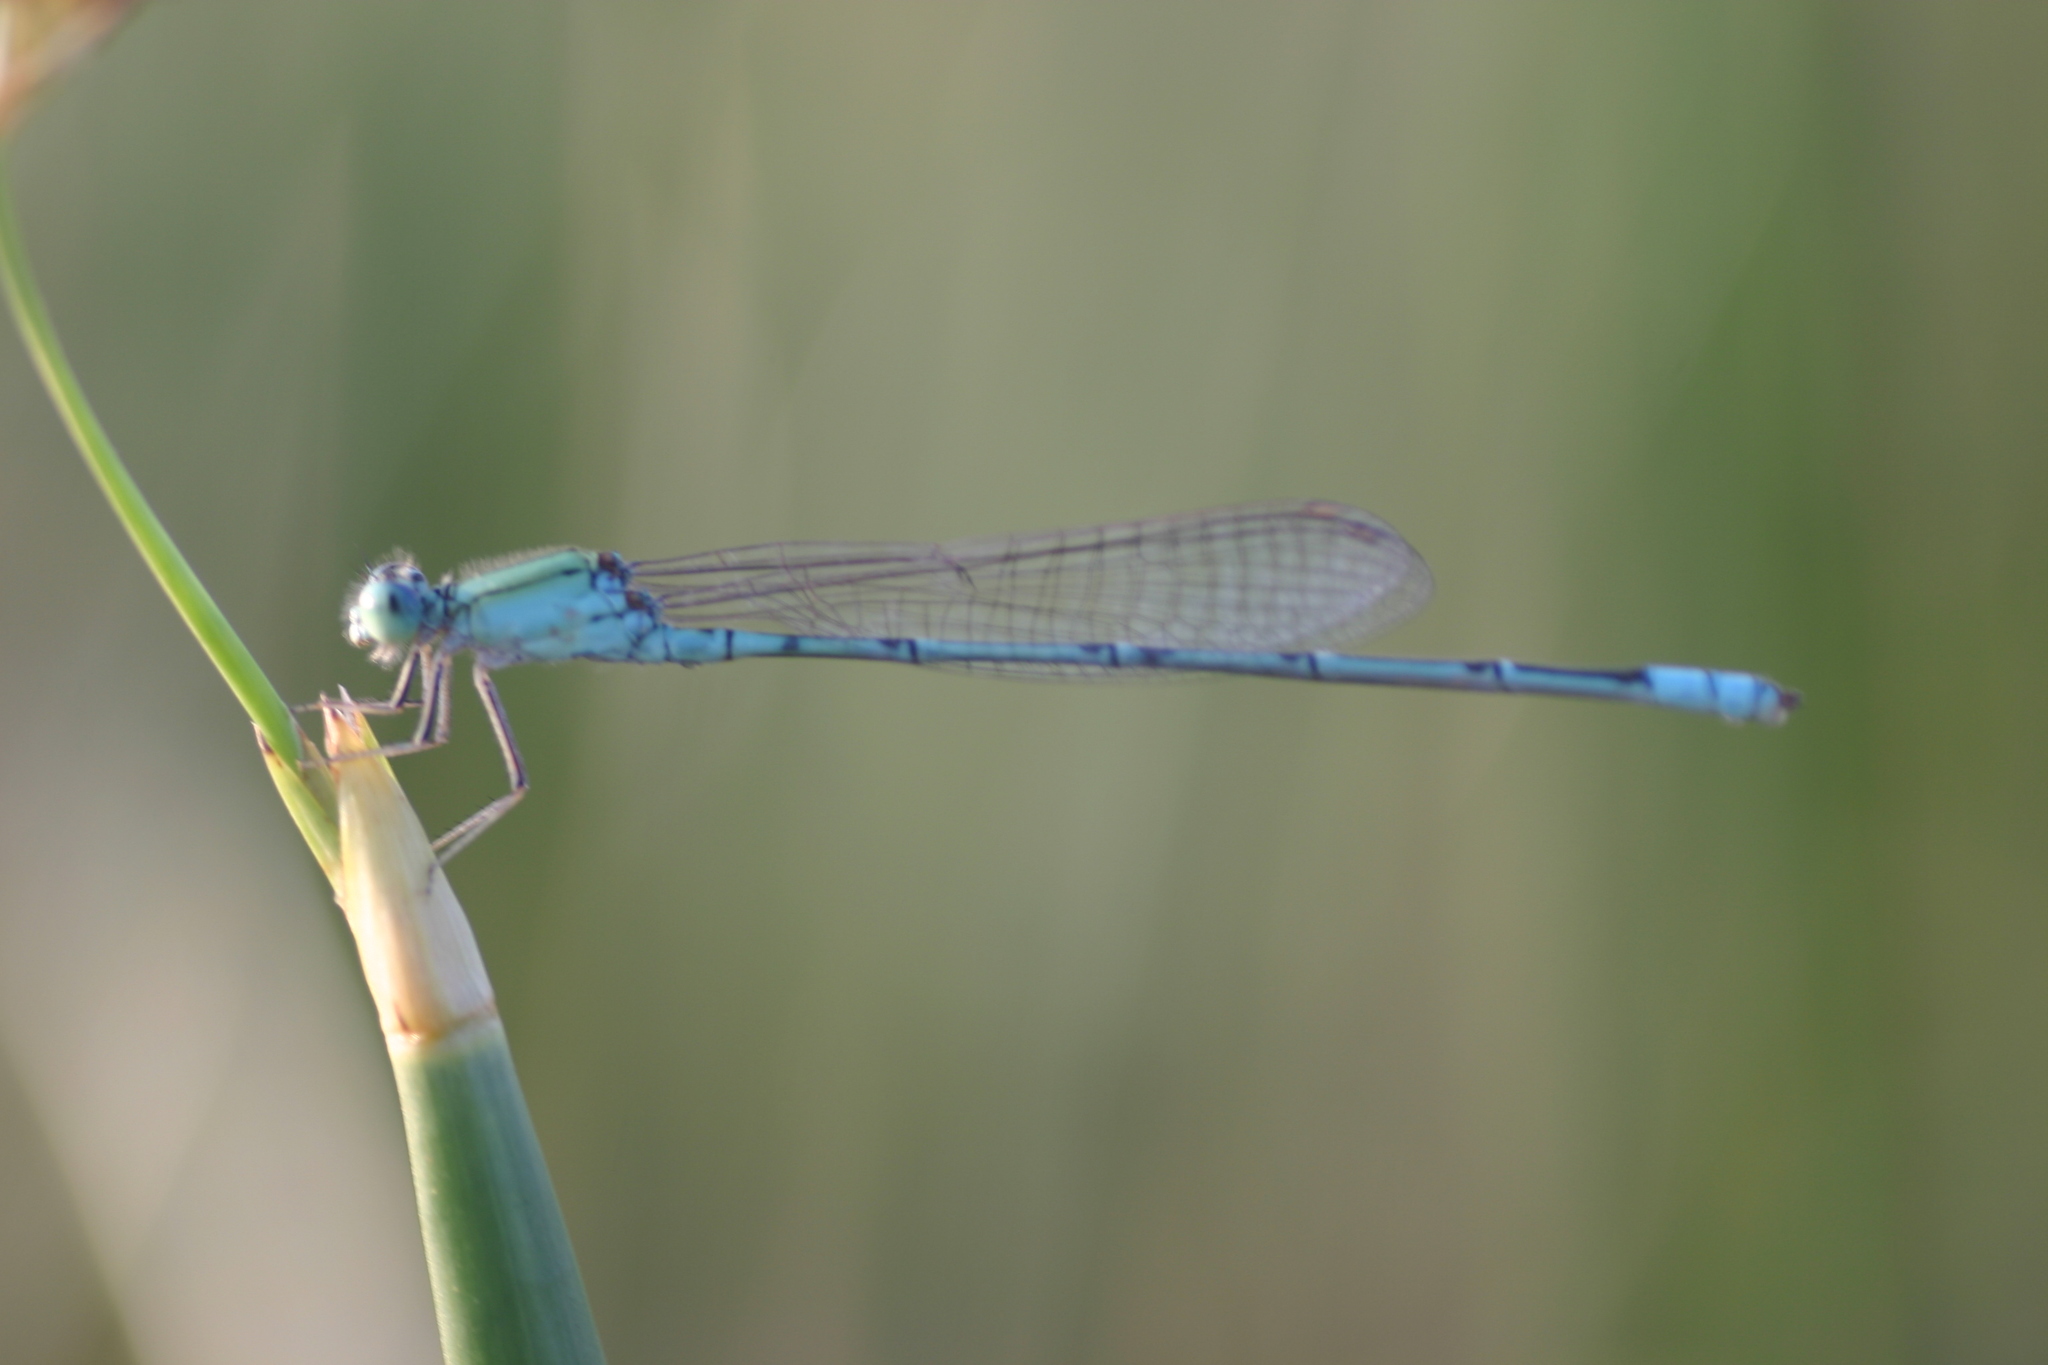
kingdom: Animalia
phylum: Arthropoda
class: Insecta
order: Odonata
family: Coenagrionidae
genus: Pseudagrion
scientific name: Pseudagrion decorum
